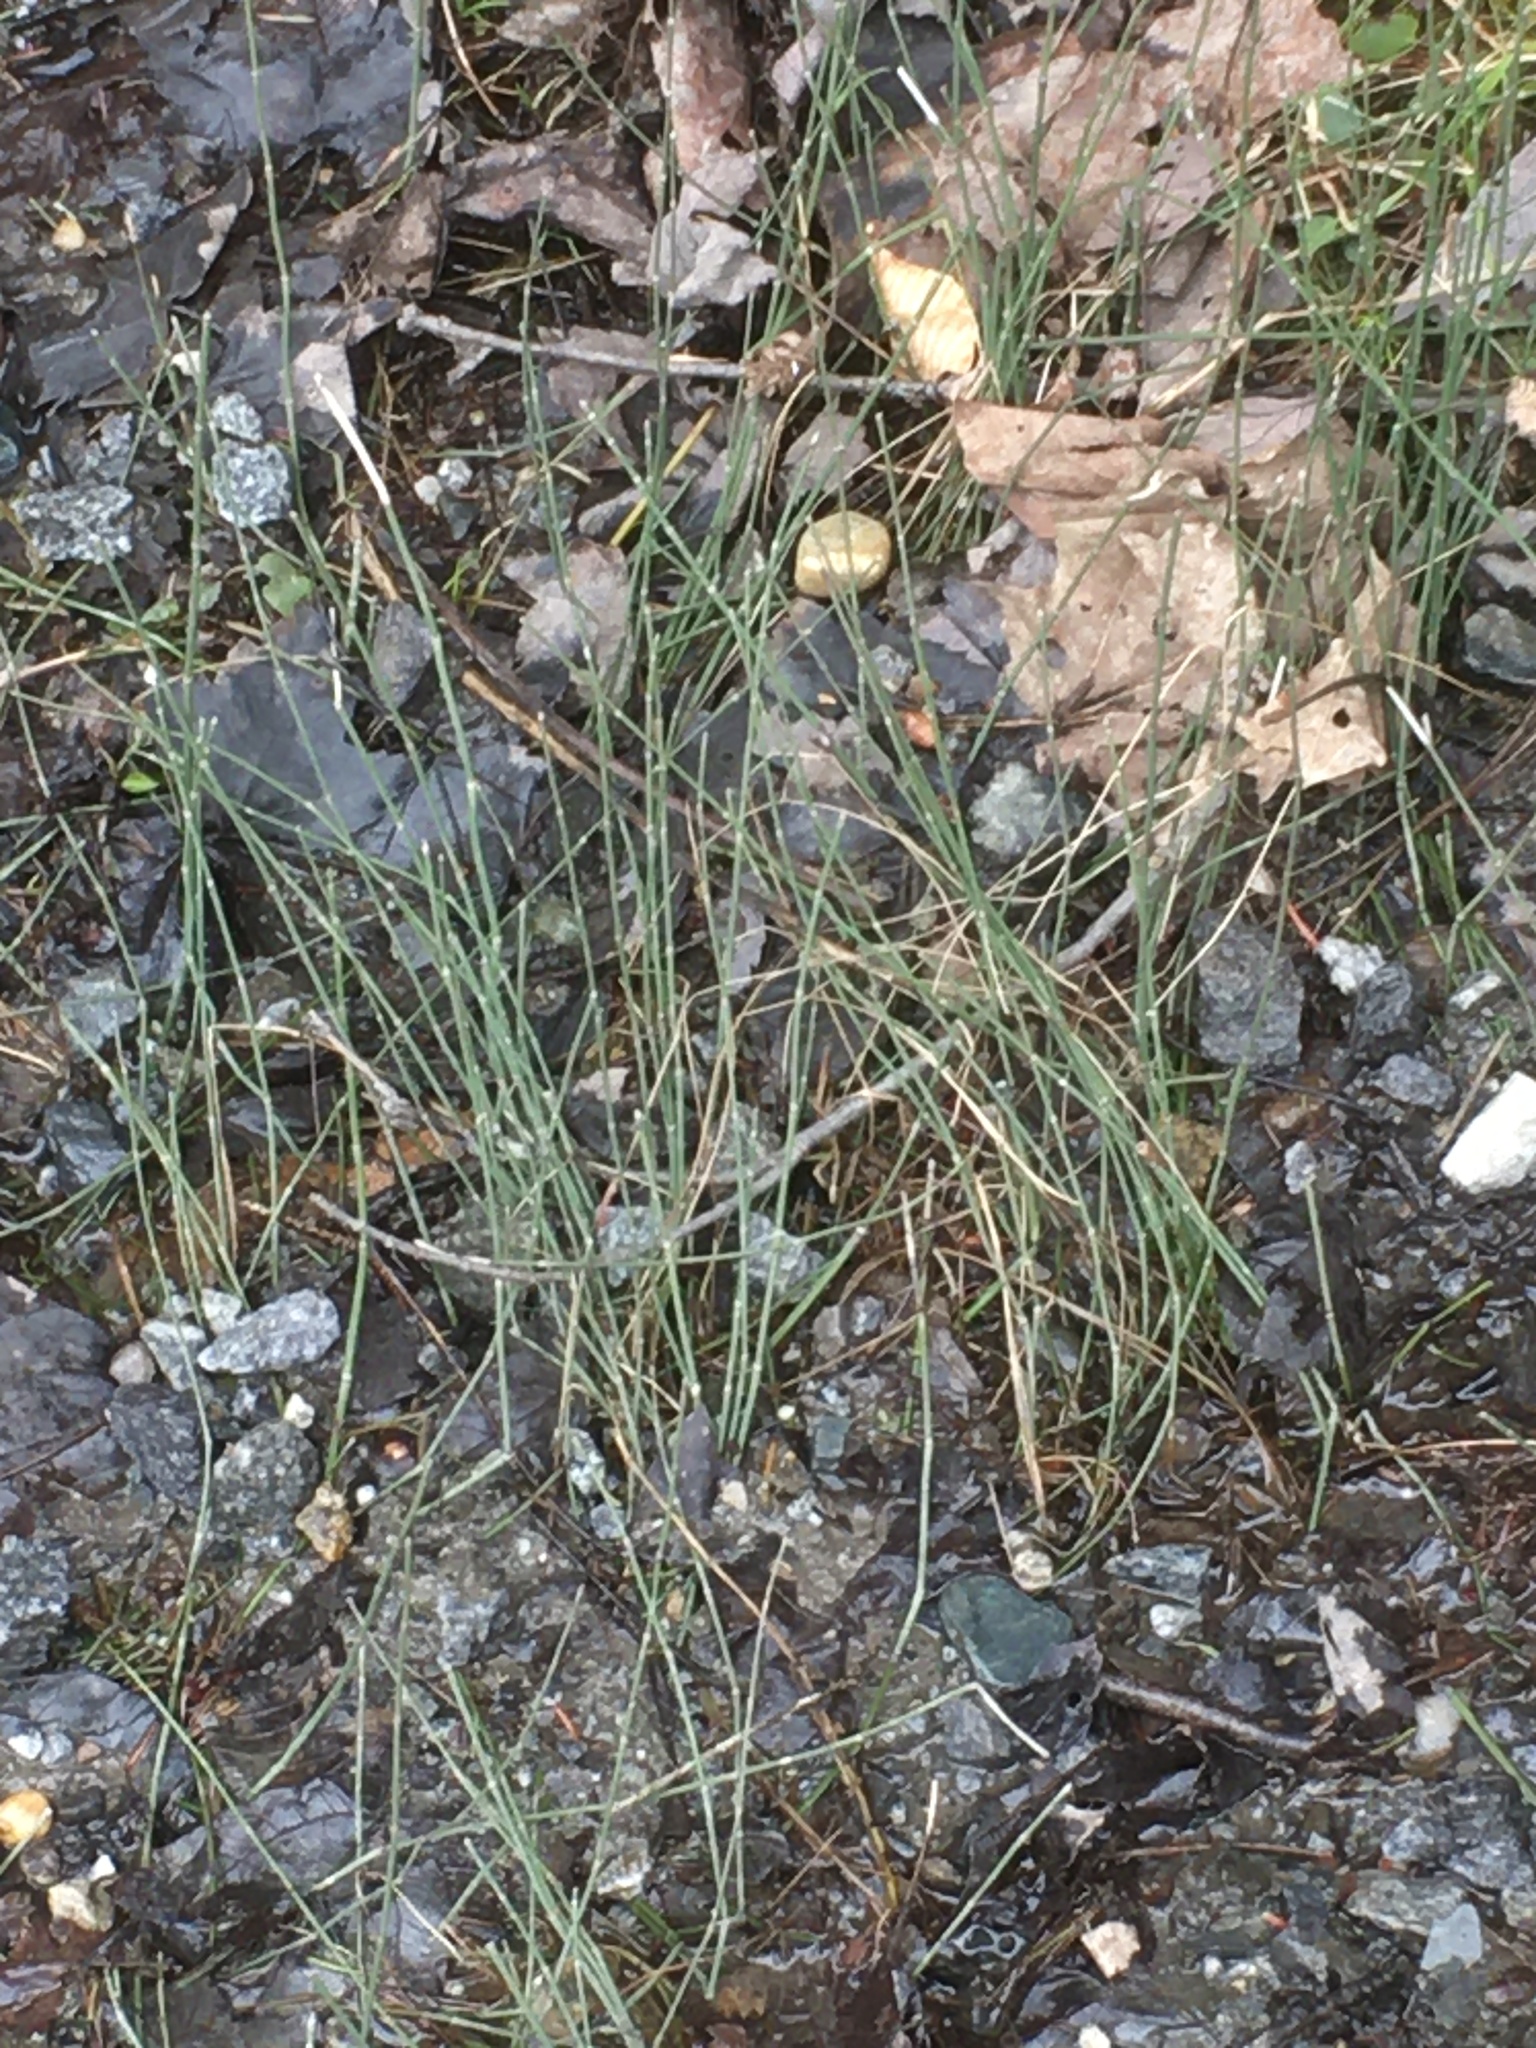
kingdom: Plantae
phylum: Tracheophyta
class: Polypodiopsida
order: Equisetales
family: Equisetaceae
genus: Equisetum
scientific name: Equisetum variegatum
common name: Variegated horsetail
